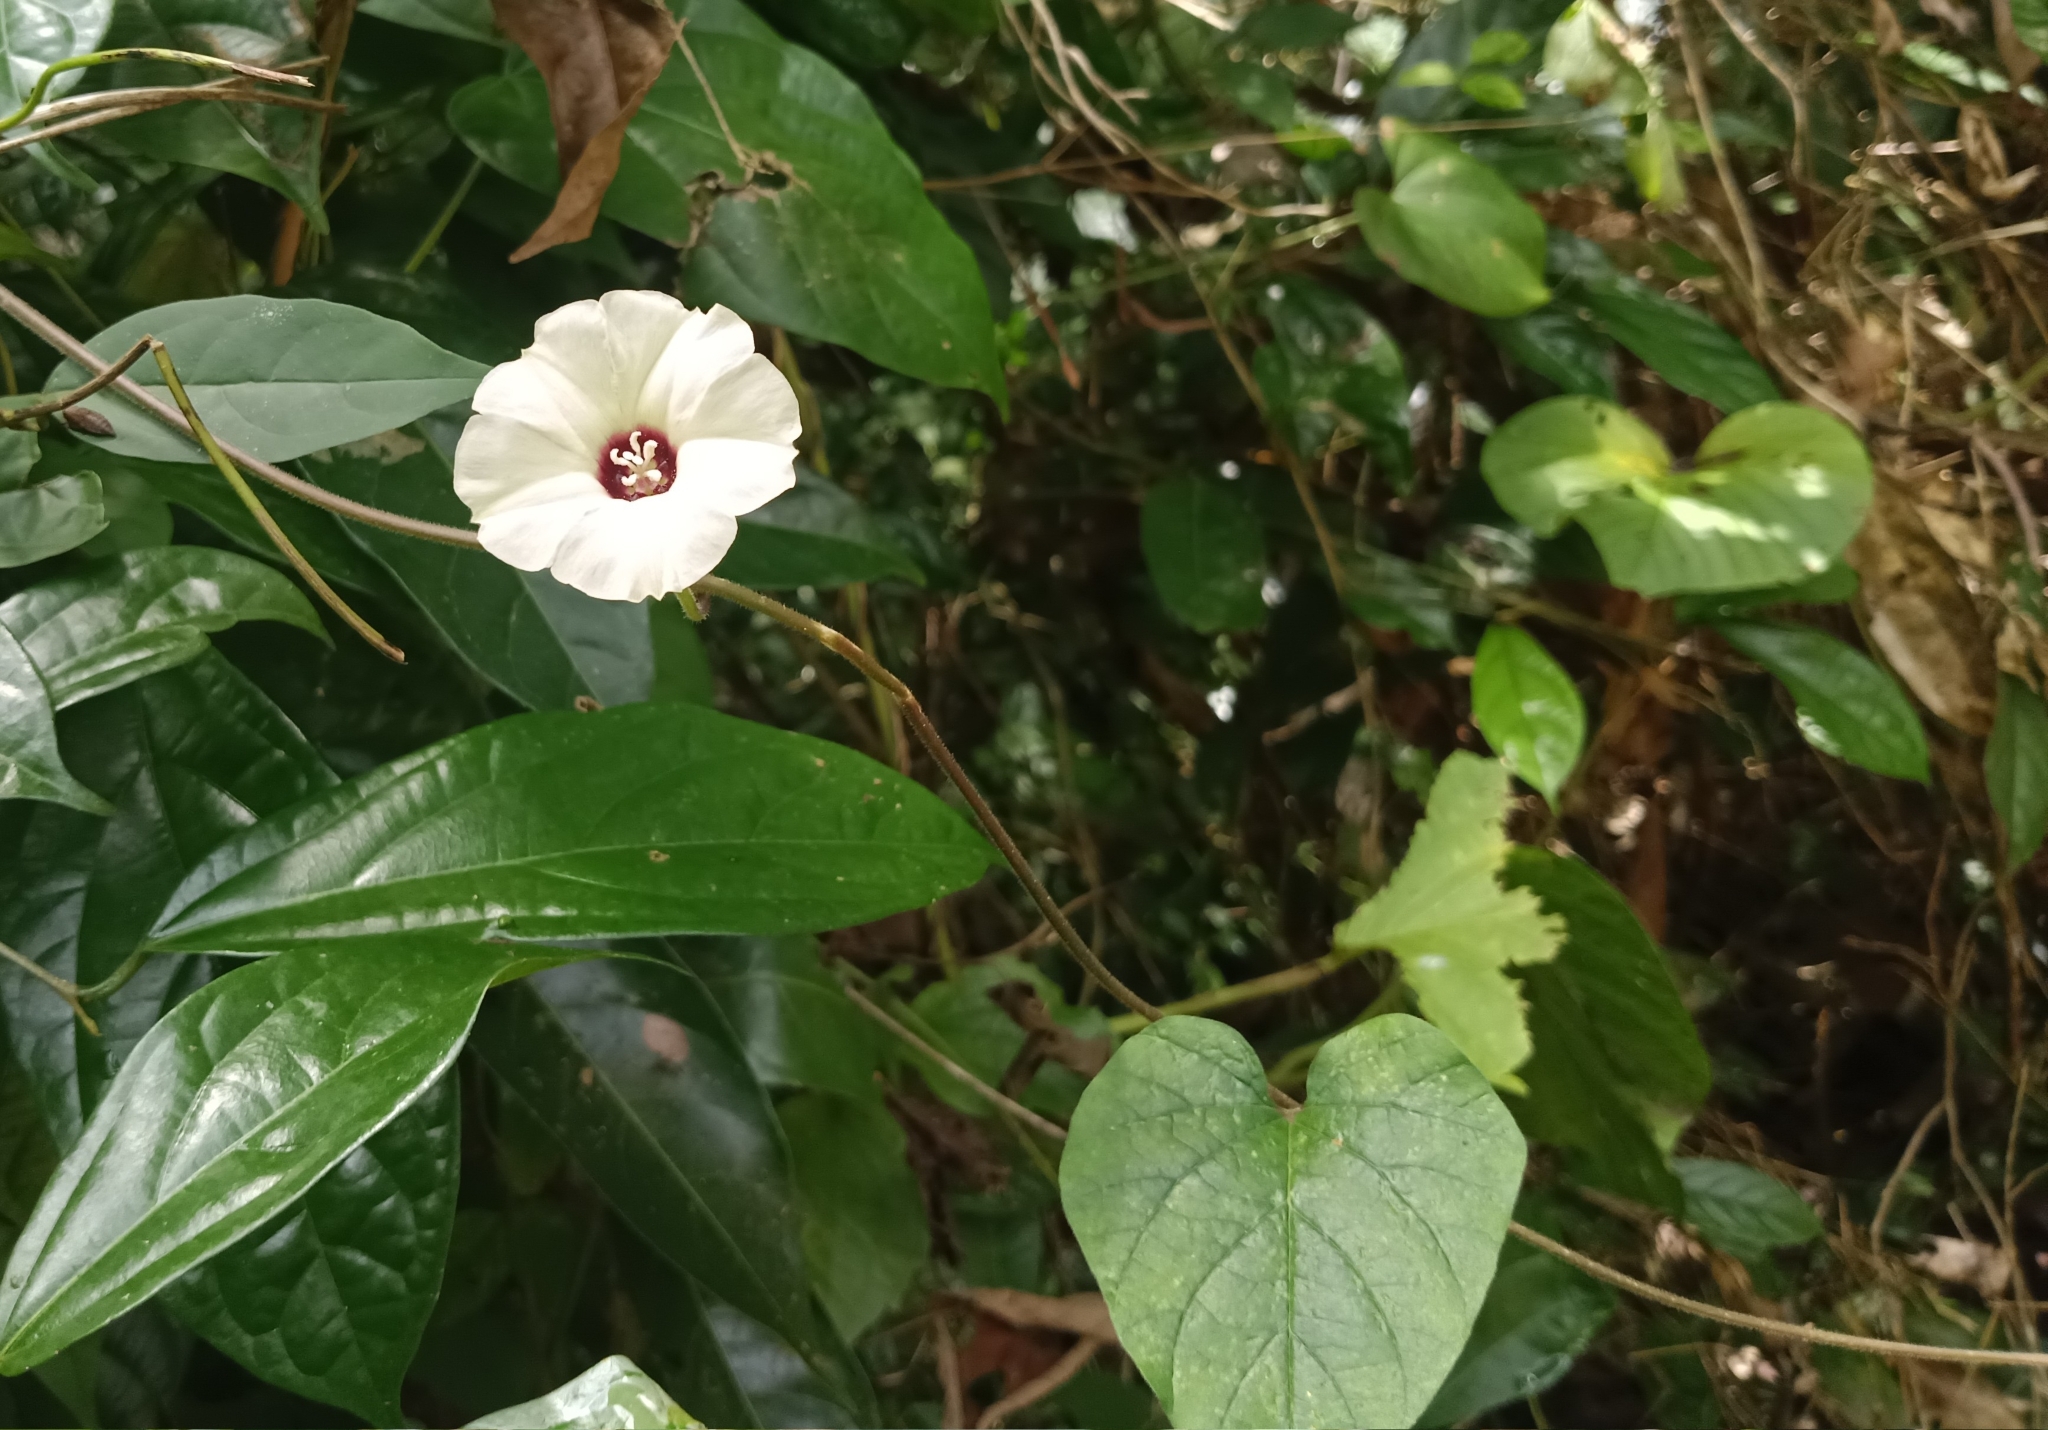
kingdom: Plantae
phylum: Tracheophyta
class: Magnoliopsida
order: Solanales
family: Convolvulaceae
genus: Hewittia
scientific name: Hewittia malabarica
